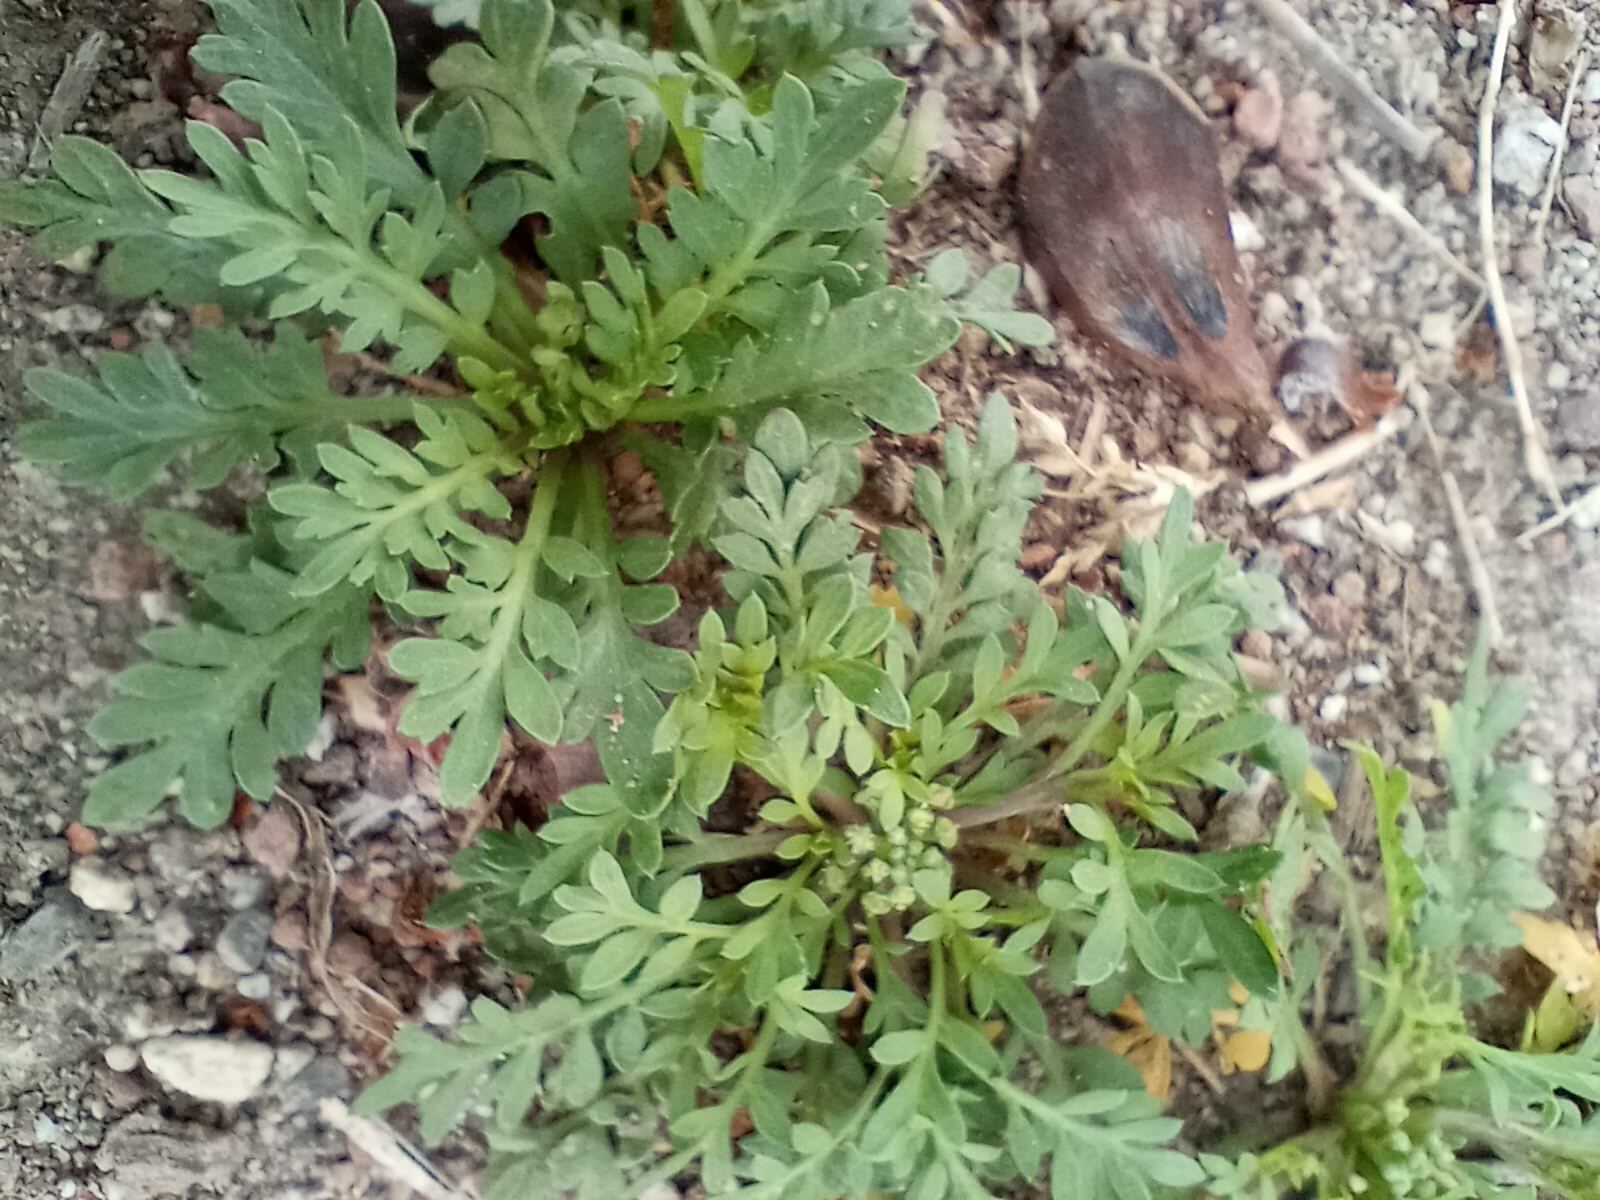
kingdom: Plantae
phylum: Tracheophyta
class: Magnoliopsida
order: Brassicales
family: Brassicaceae
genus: Lepidium
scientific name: Lepidium didymum
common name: Lesser swinecress
